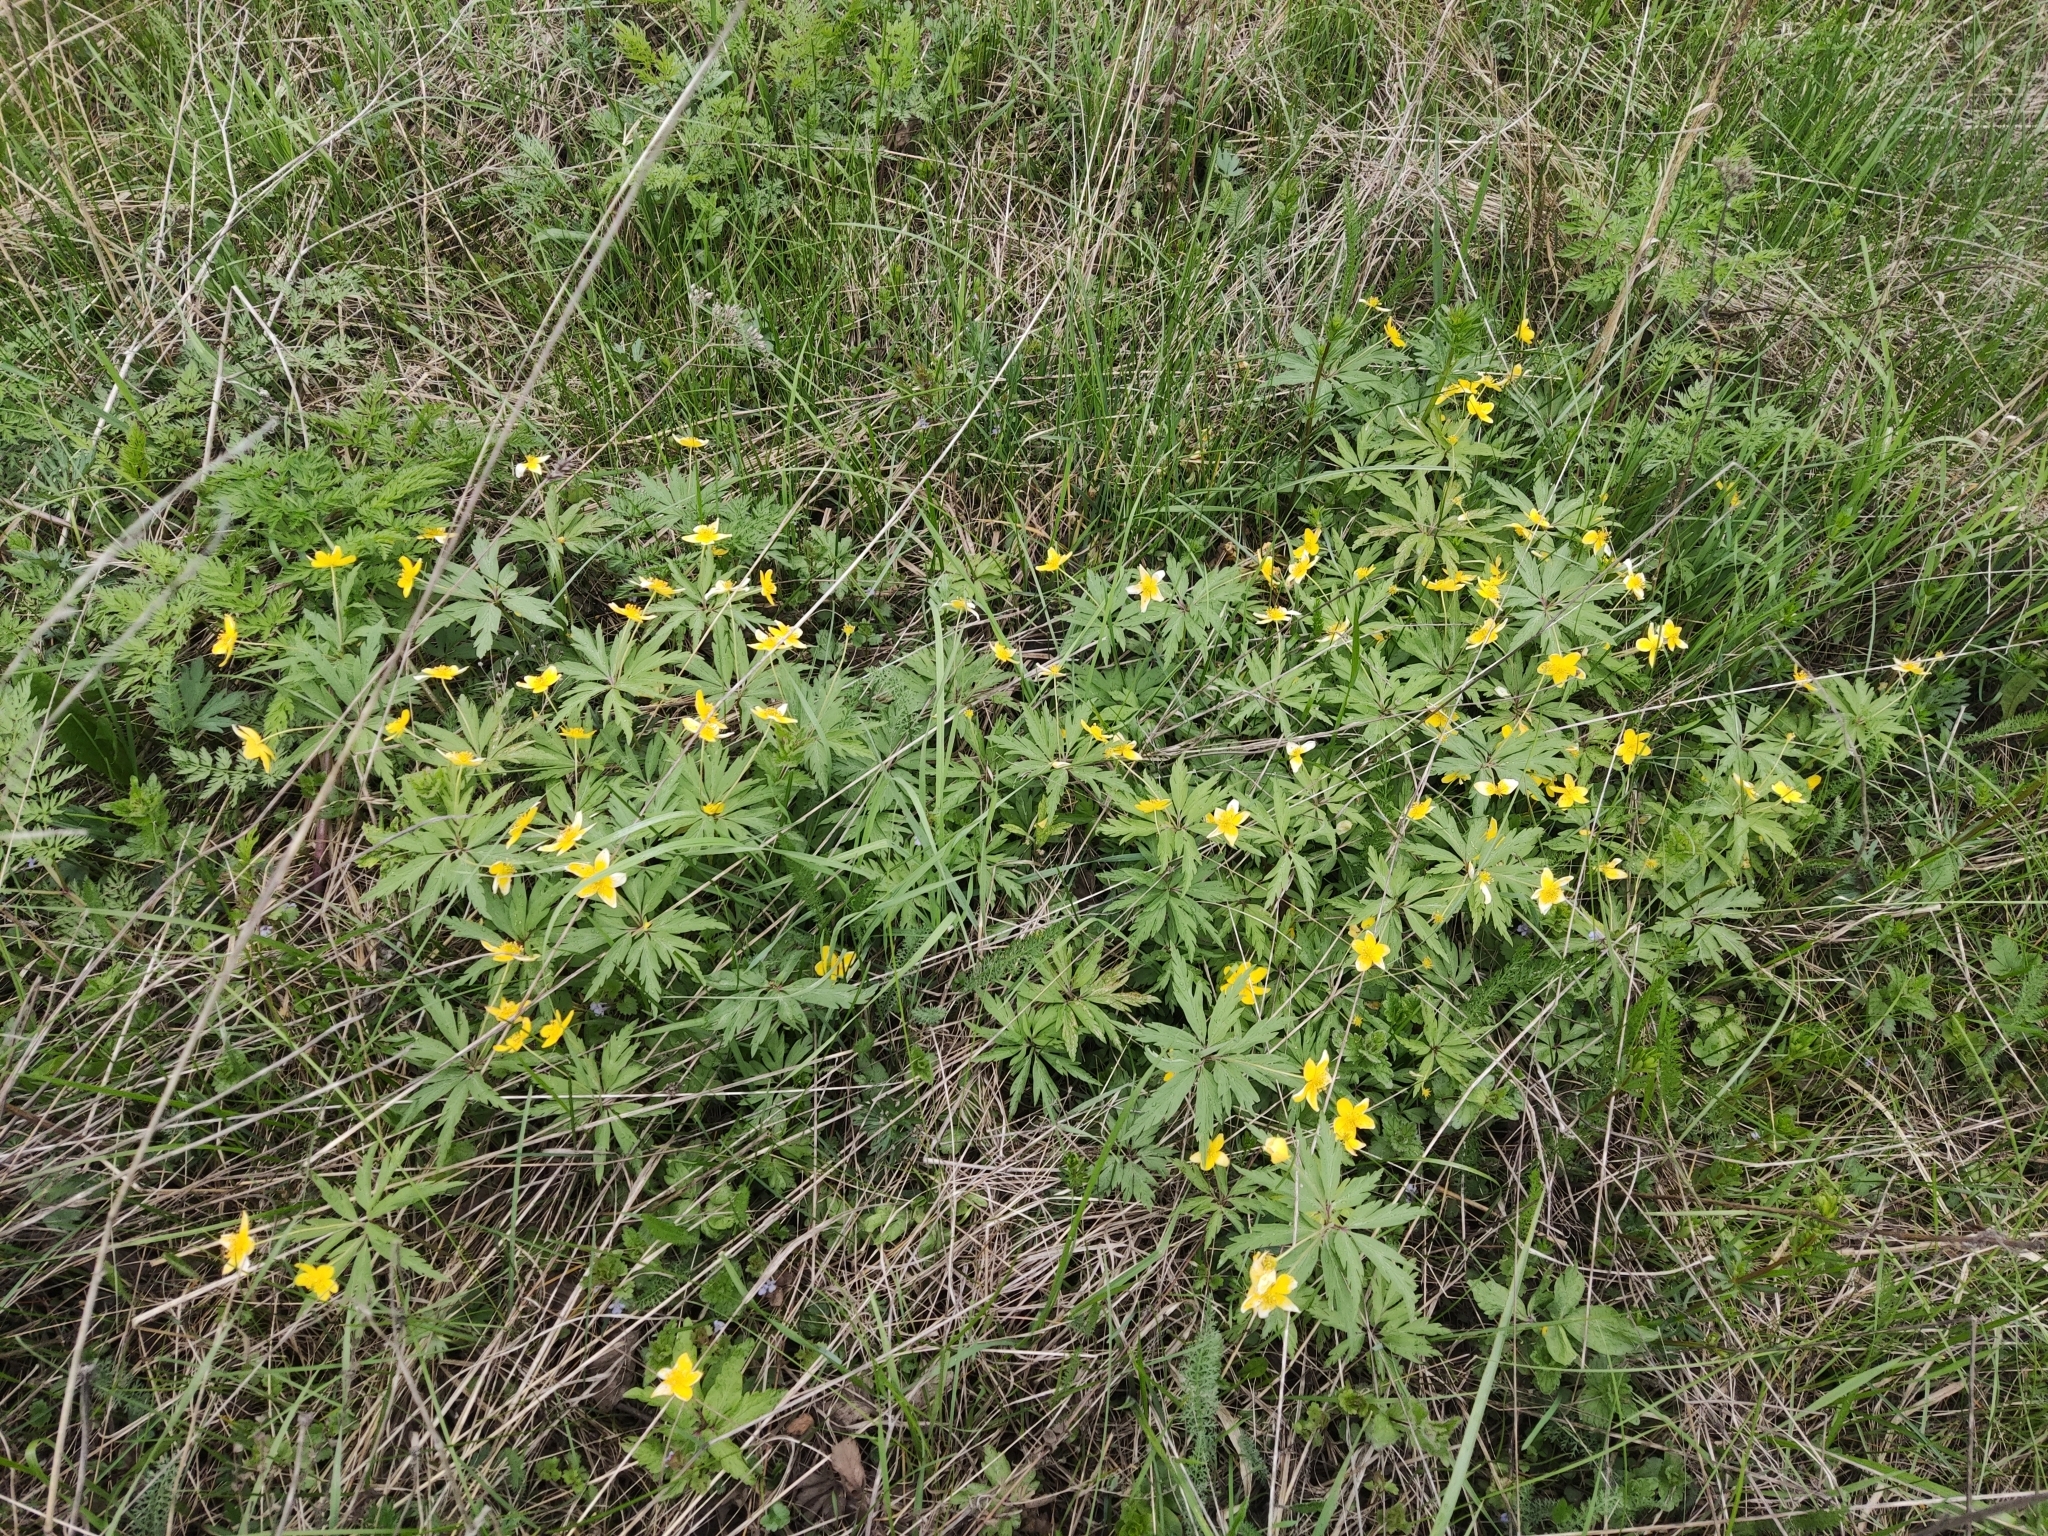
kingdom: Plantae
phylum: Tracheophyta
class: Magnoliopsida
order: Ranunculales
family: Ranunculaceae
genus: Anemone
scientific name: Anemone ranunculoides
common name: Yellow anemone
